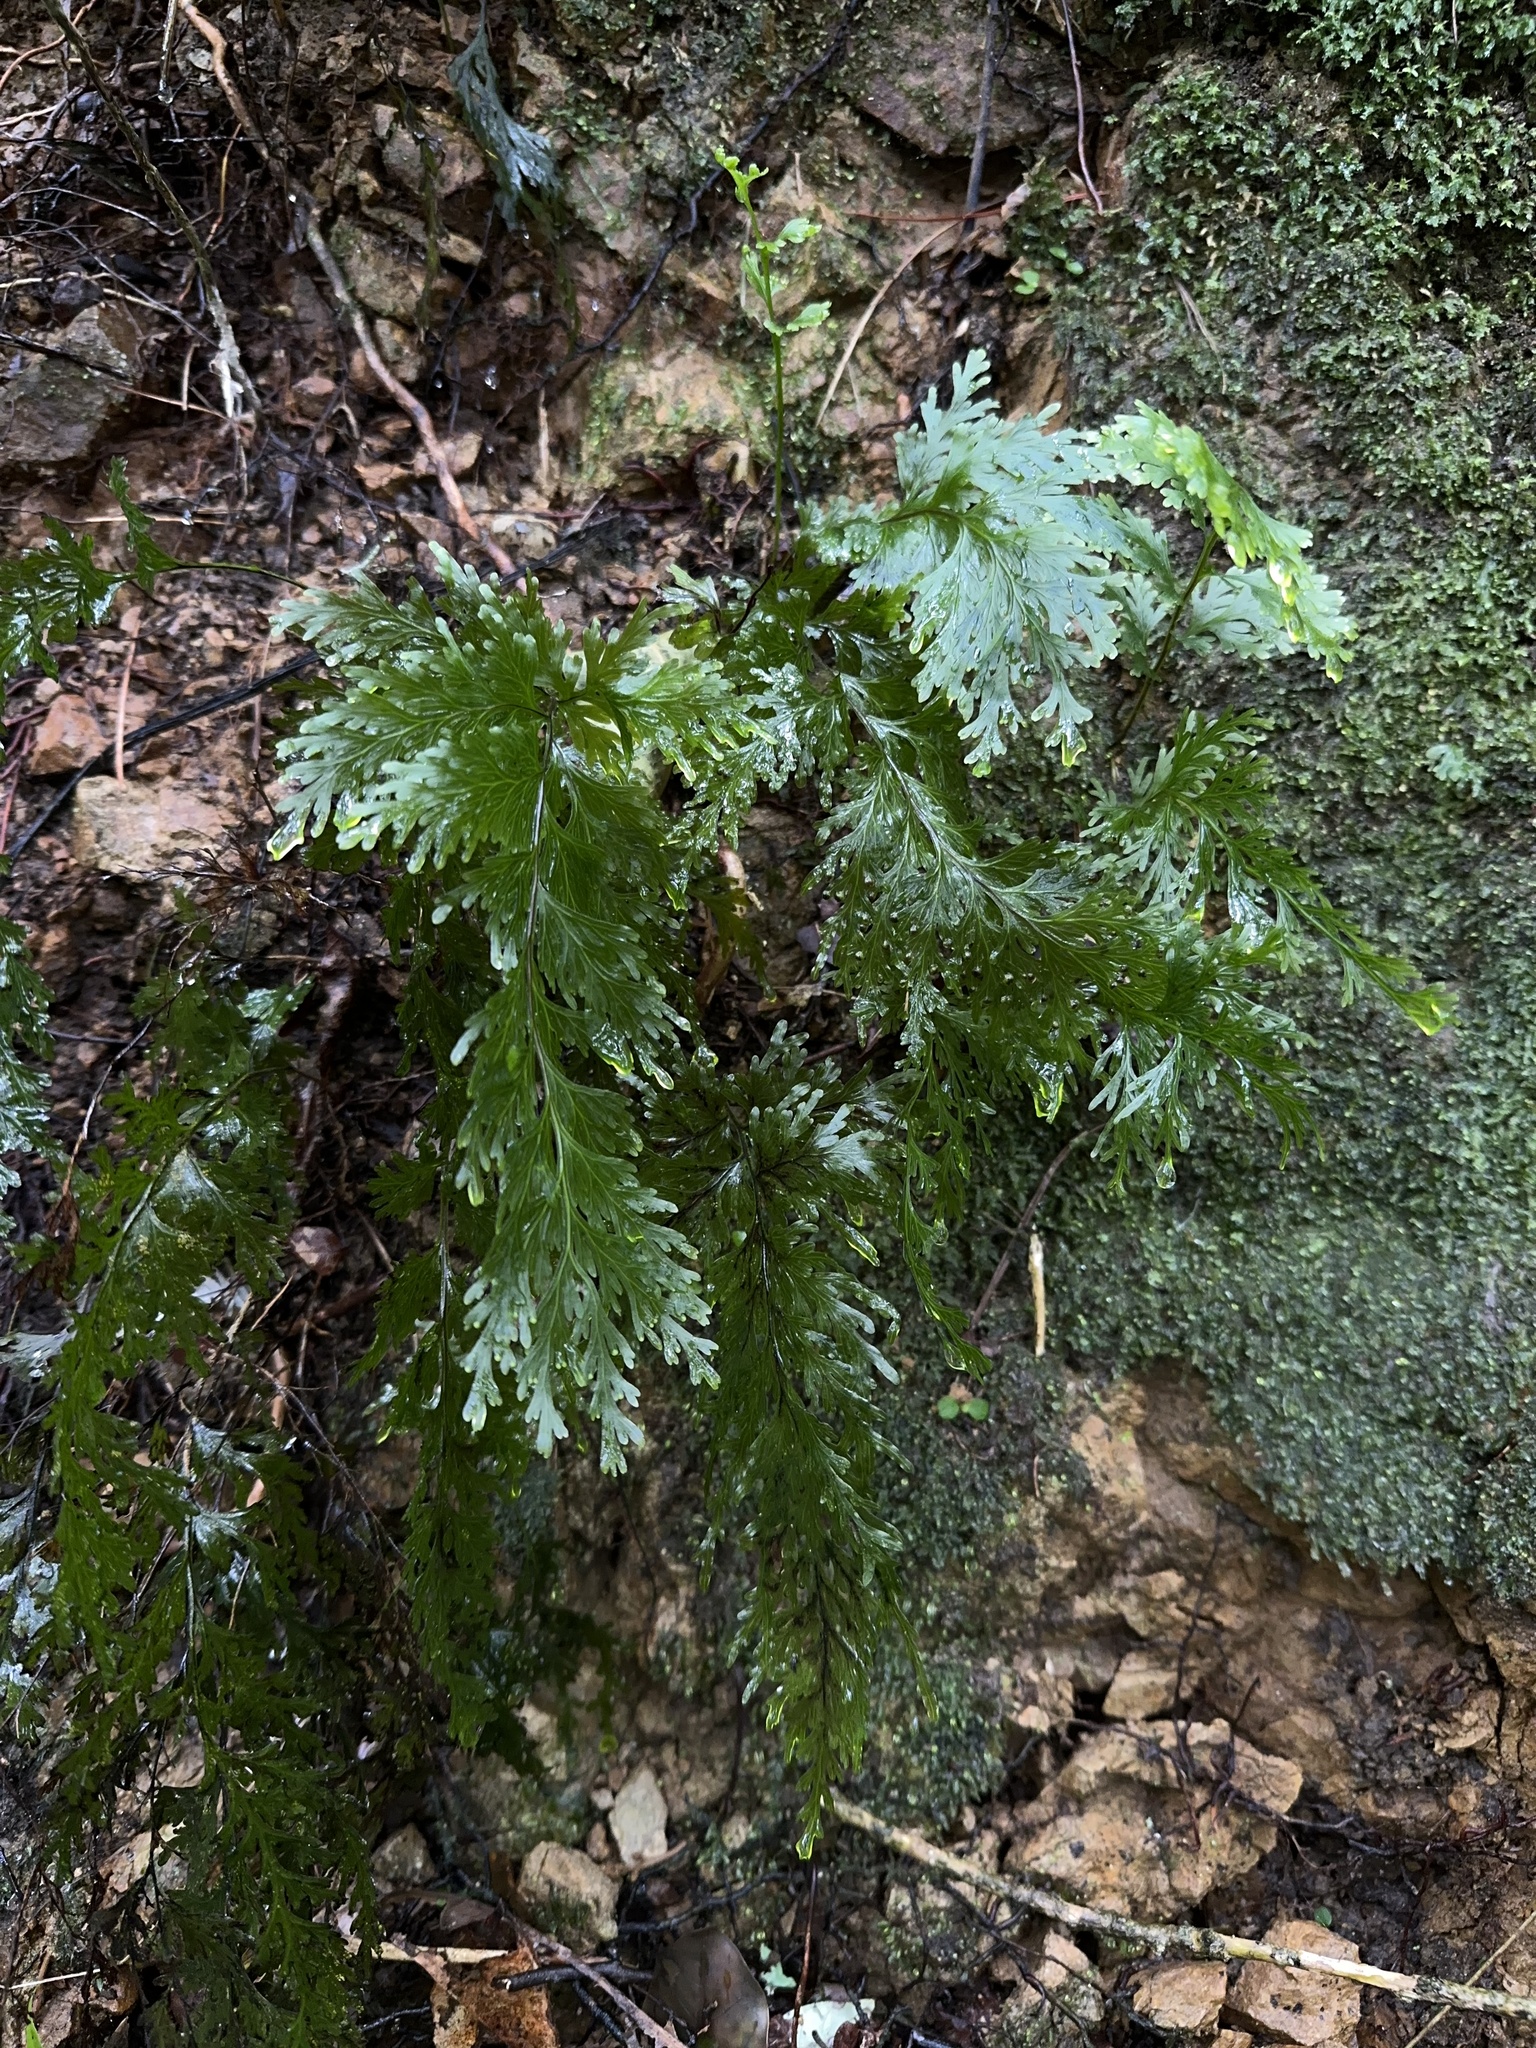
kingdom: Plantae
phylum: Tracheophyta
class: Polypodiopsida
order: Hymenophyllales
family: Hymenophyllaceae
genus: Hymenophyllum
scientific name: Hymenophyllum dilatatum
